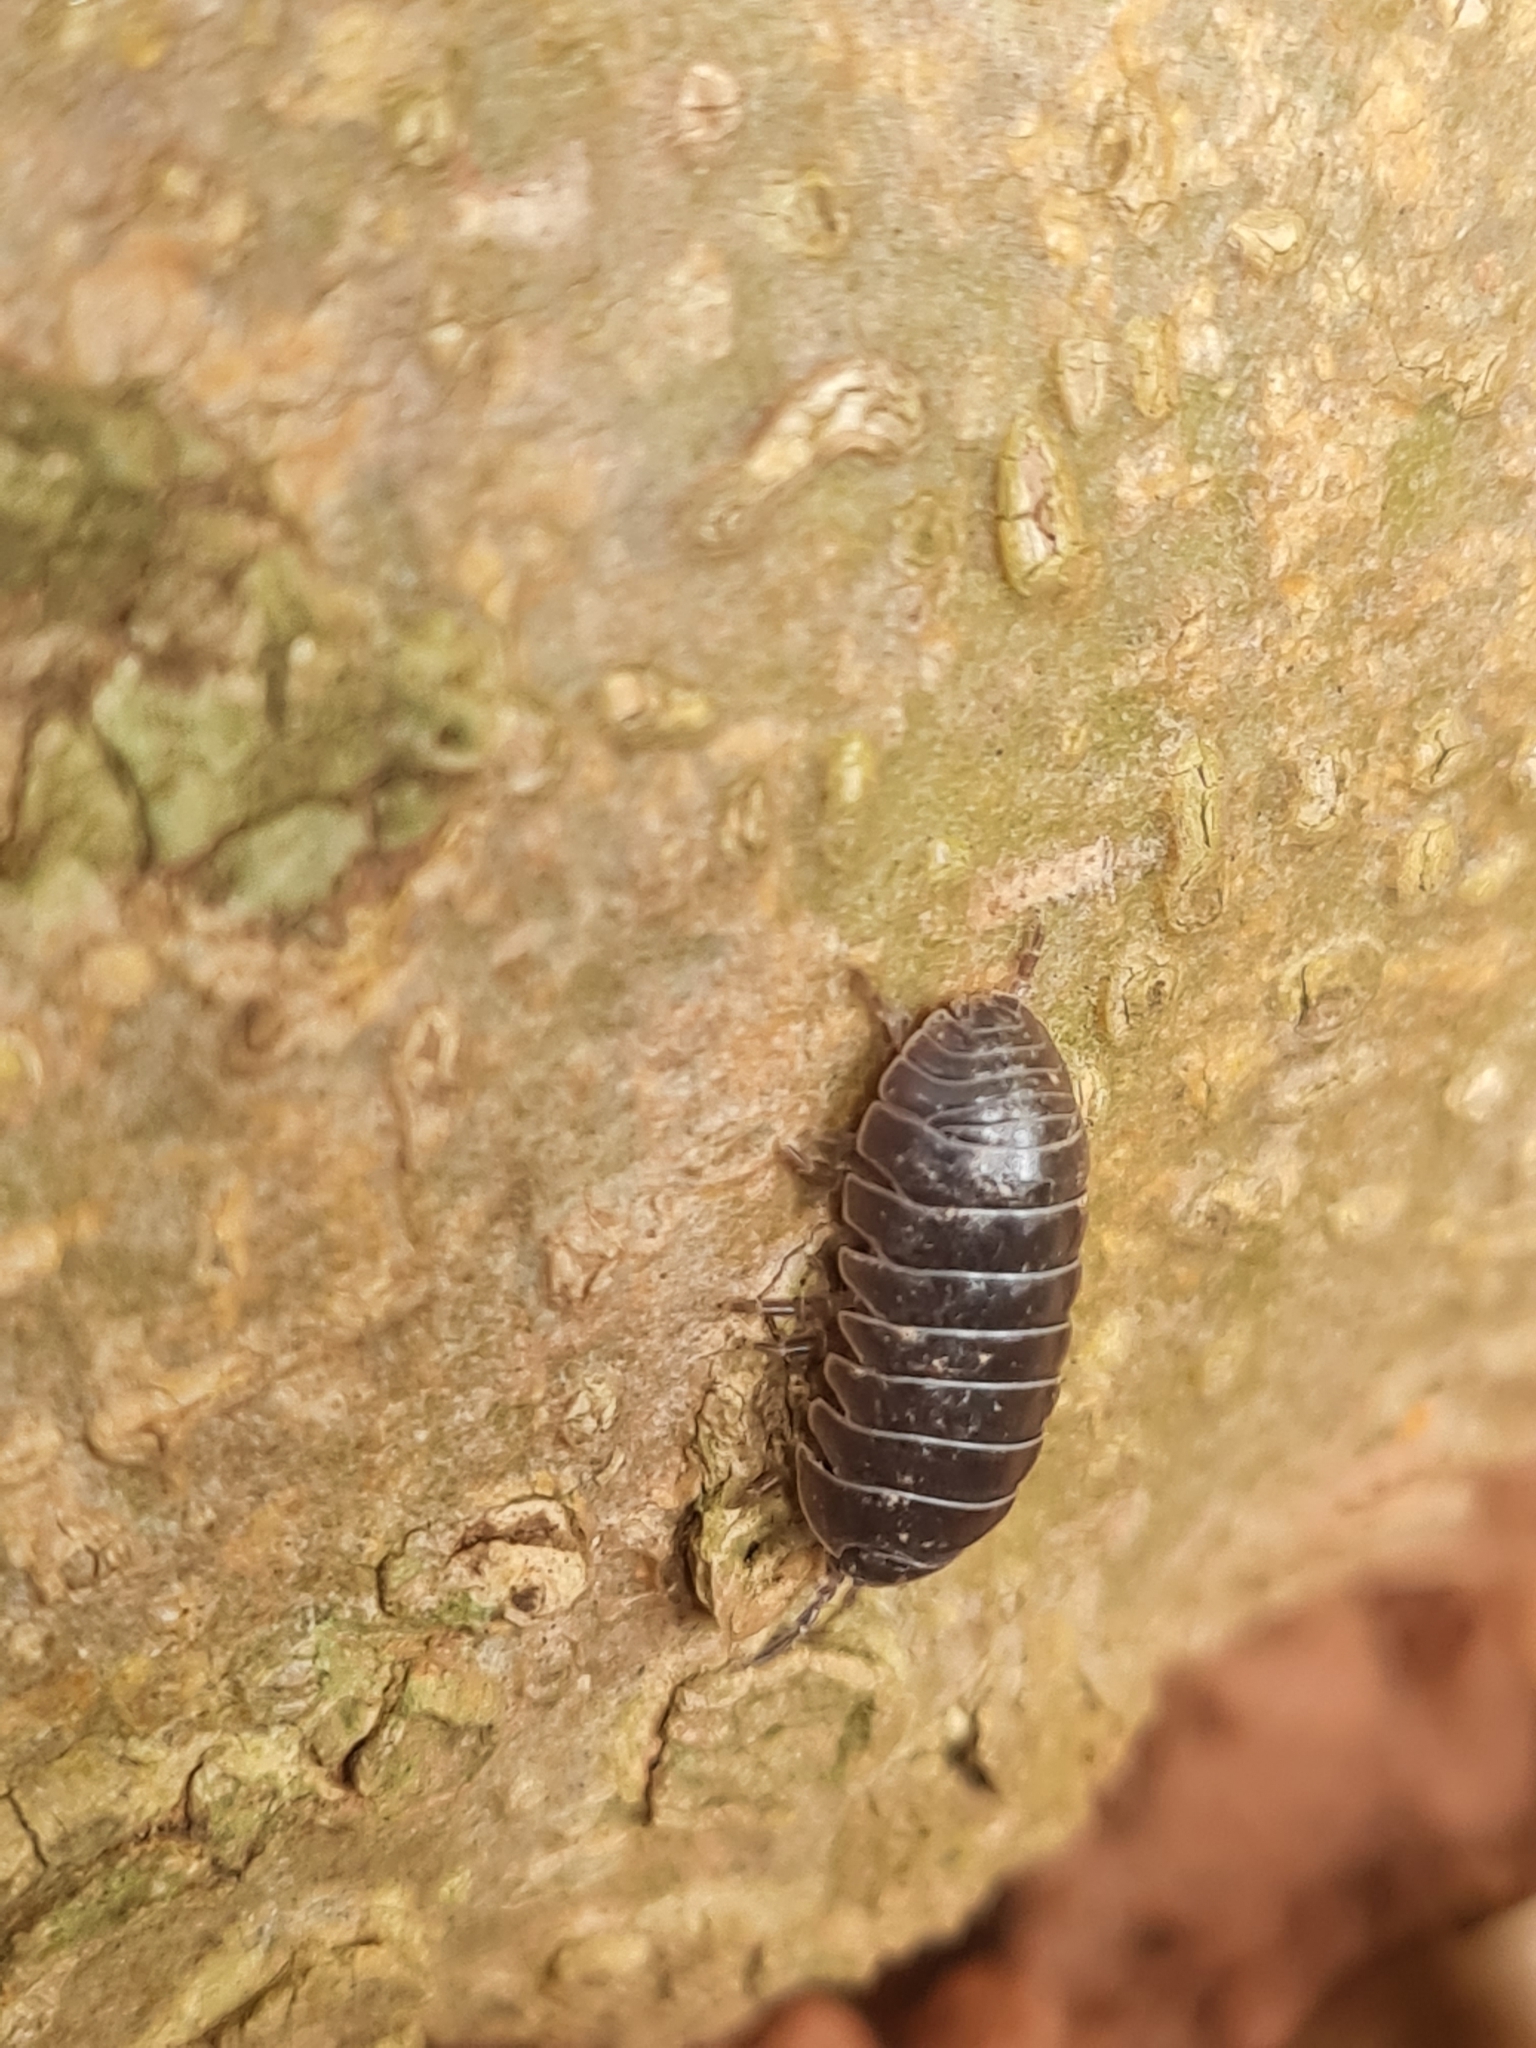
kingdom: Animalia
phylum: Arthropoda
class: Malacostraca
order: Isopoda
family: Armadillidiidae
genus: Armadillidium
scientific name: Armadillidium vulgare
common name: Common pill woodlouse
